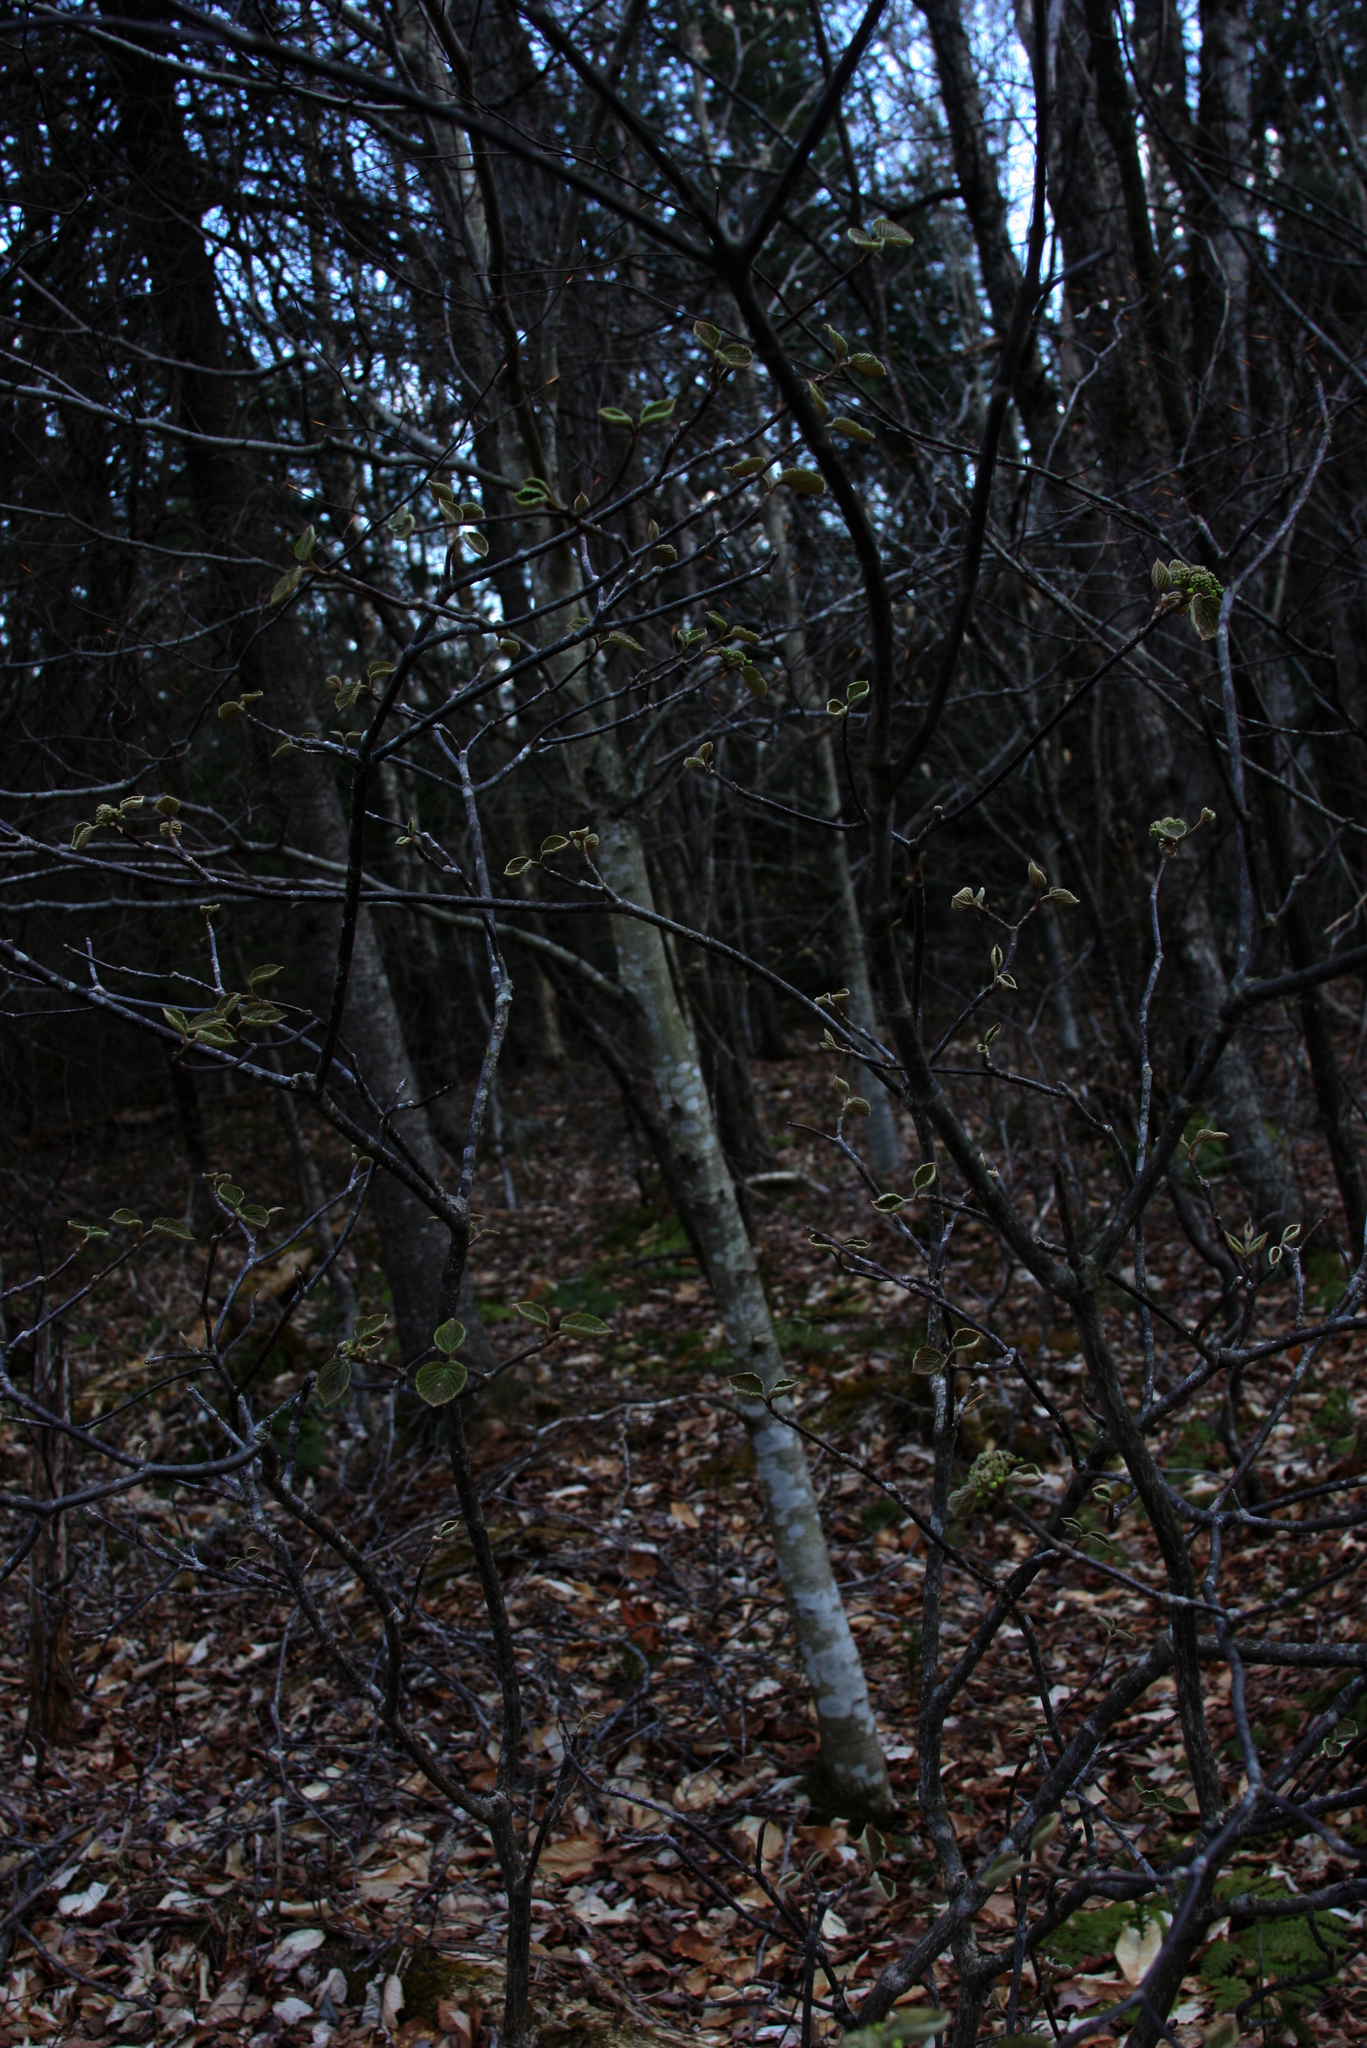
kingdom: Plantae
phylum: Tracheophyta
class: Magnoliopsida
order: Dipsacales
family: Viburnaceae
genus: Viburnum
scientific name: Viburnum lantanoides
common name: Hobblebush
